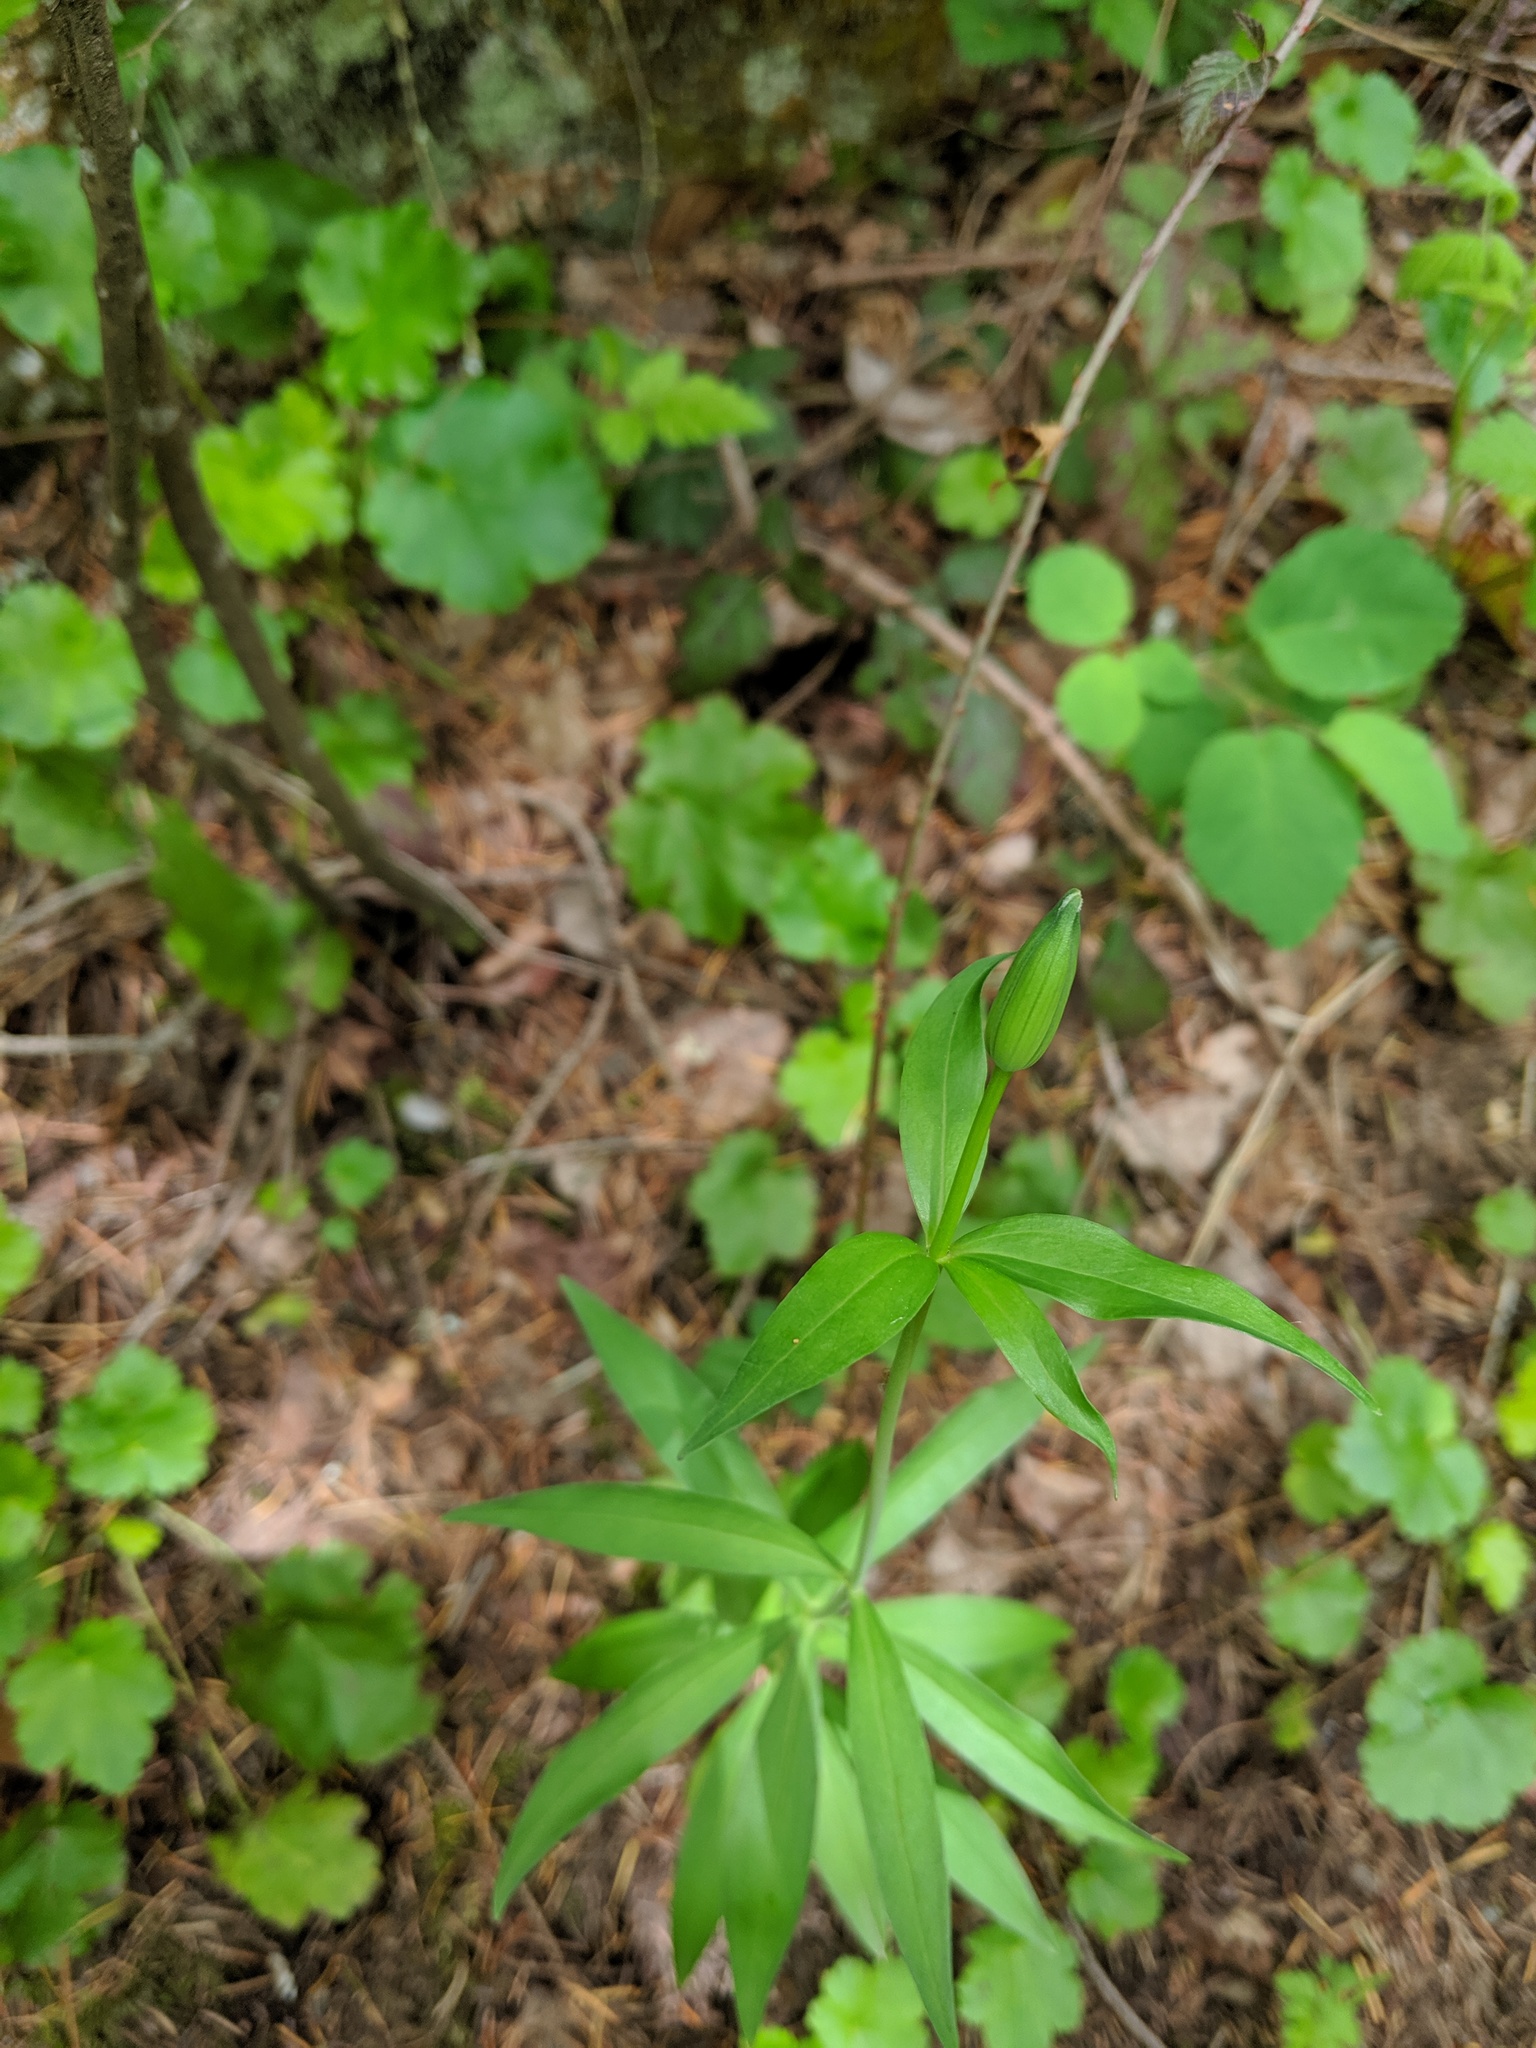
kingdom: Plantae
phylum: Tracheophyta
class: Liliopsida
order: Liliales
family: Liliaceae
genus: Lilium
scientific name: Lilium columbianum
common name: Columbia lily
